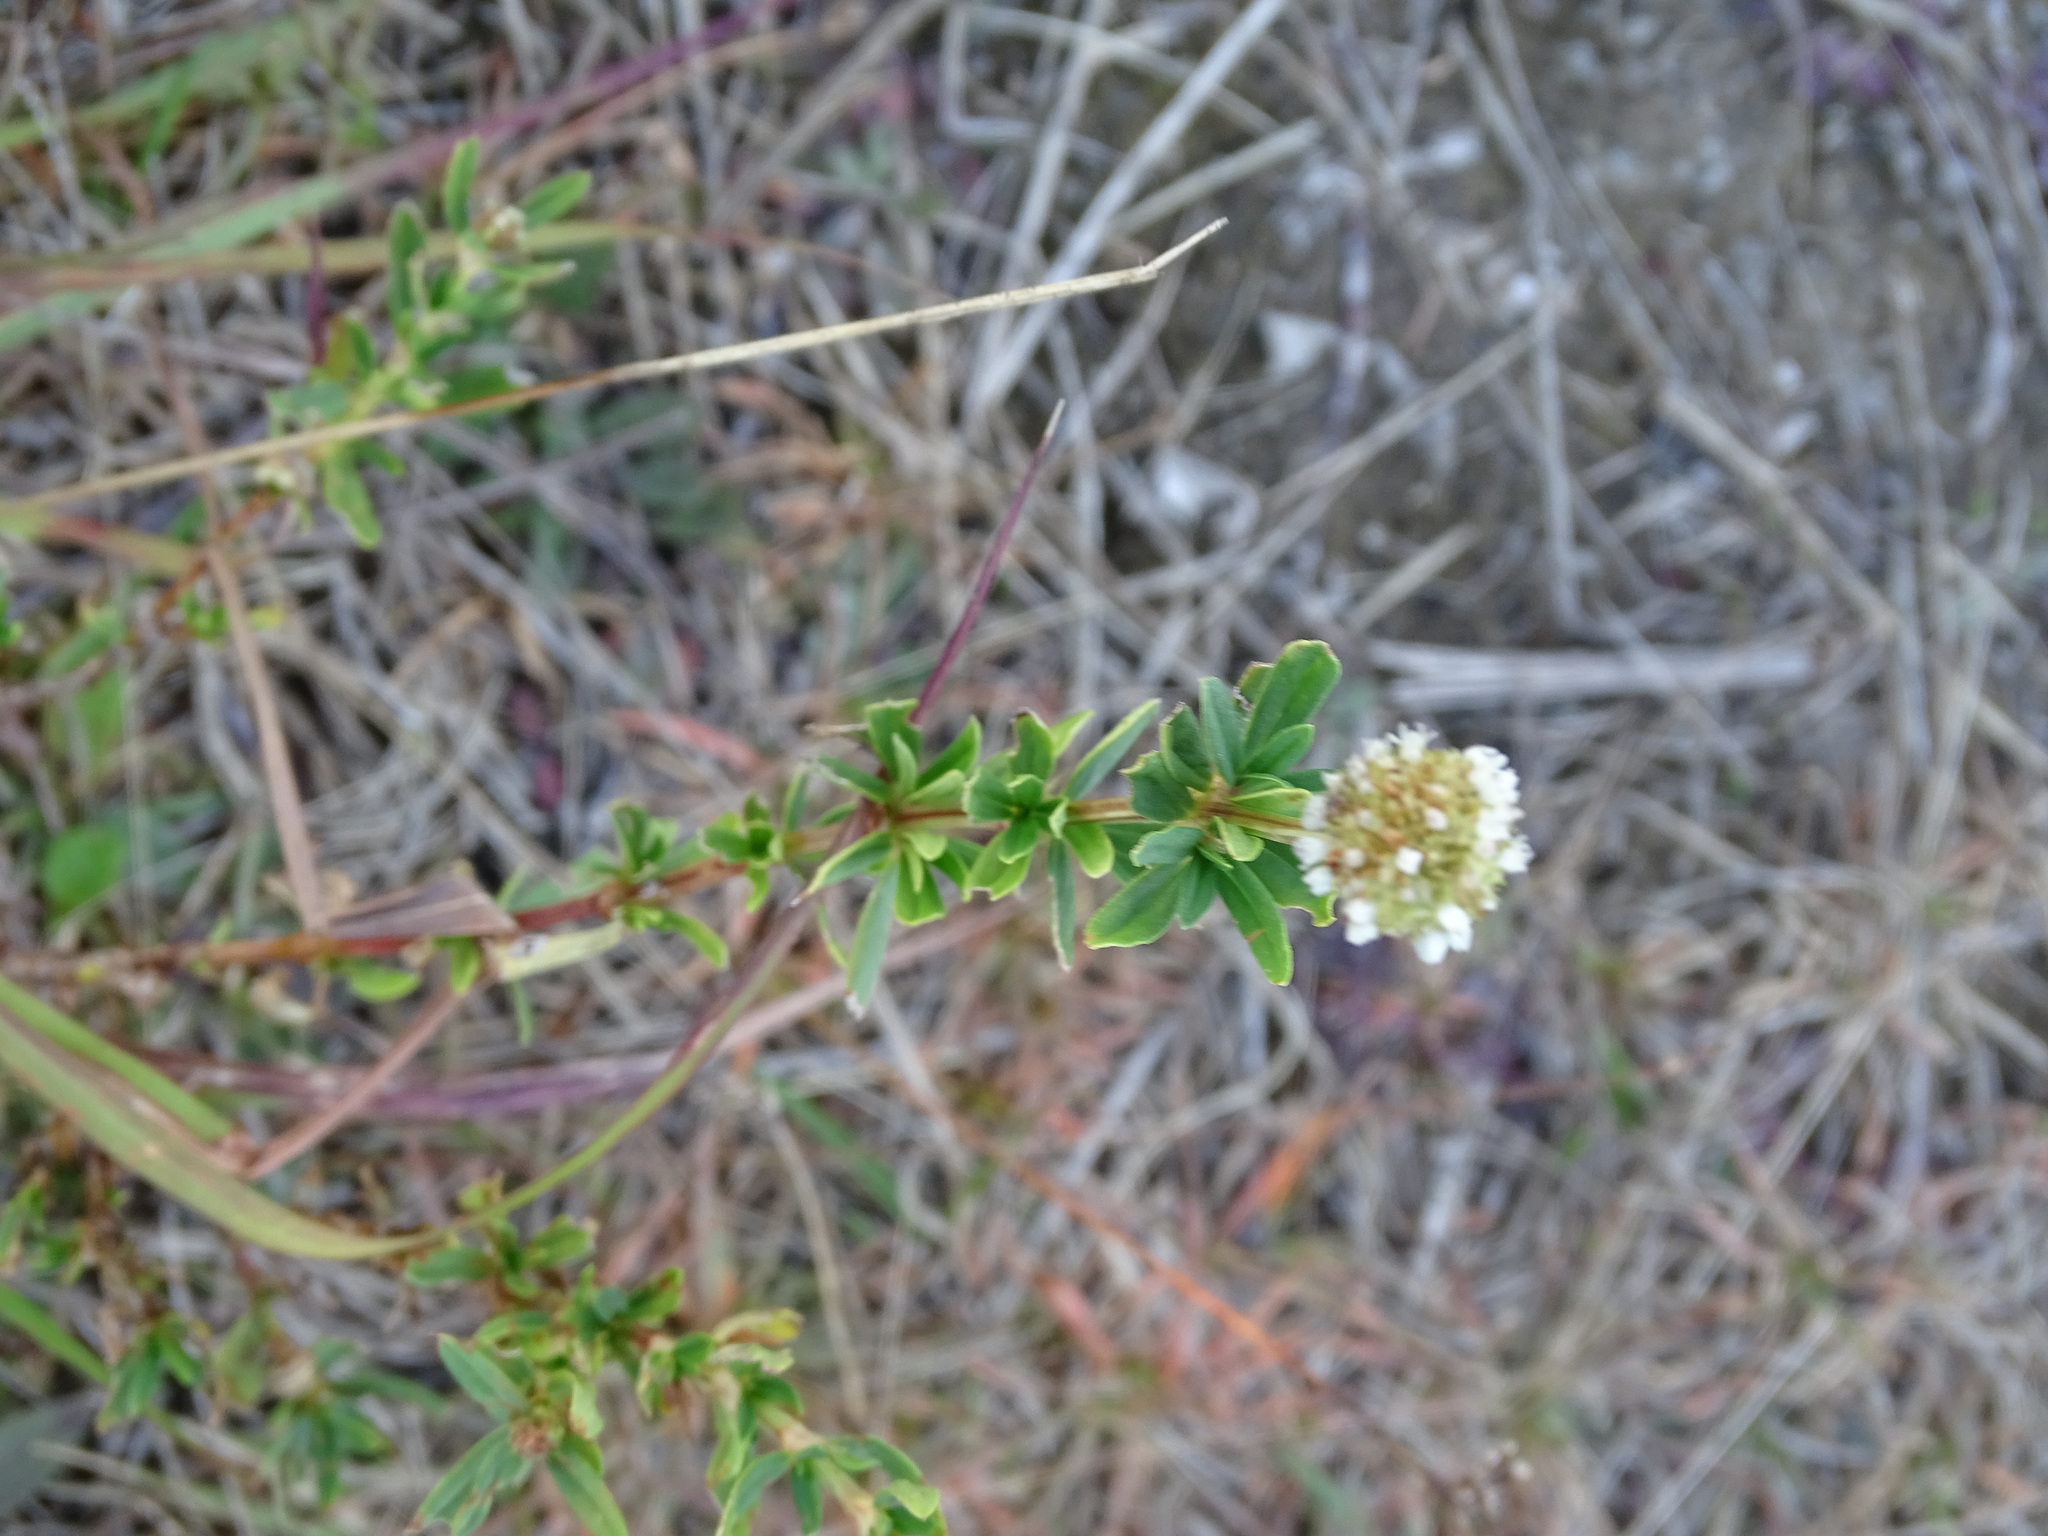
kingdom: Plantae
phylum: Tracheophyta
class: Magnoliopsida
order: Gentianales
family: Rubiaceae
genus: Spermacoce
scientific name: Spermacoce verticillata
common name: Shrubby false buttonweed
